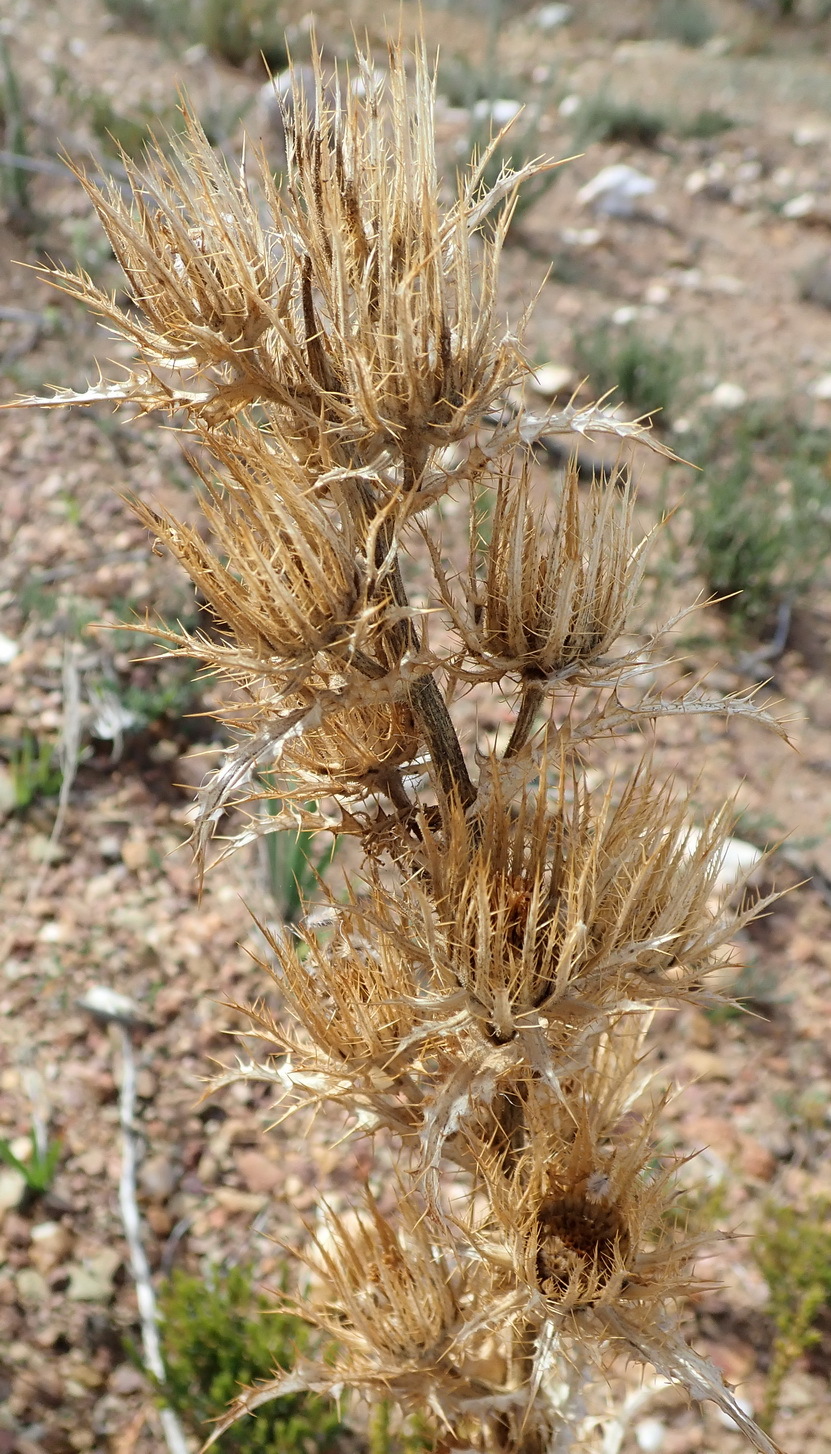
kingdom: Plantae
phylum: Tracheophyta
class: Magnoliopsida
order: Asterales
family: Asteraceae
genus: Berkheya
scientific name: Berkheya carlinoides
